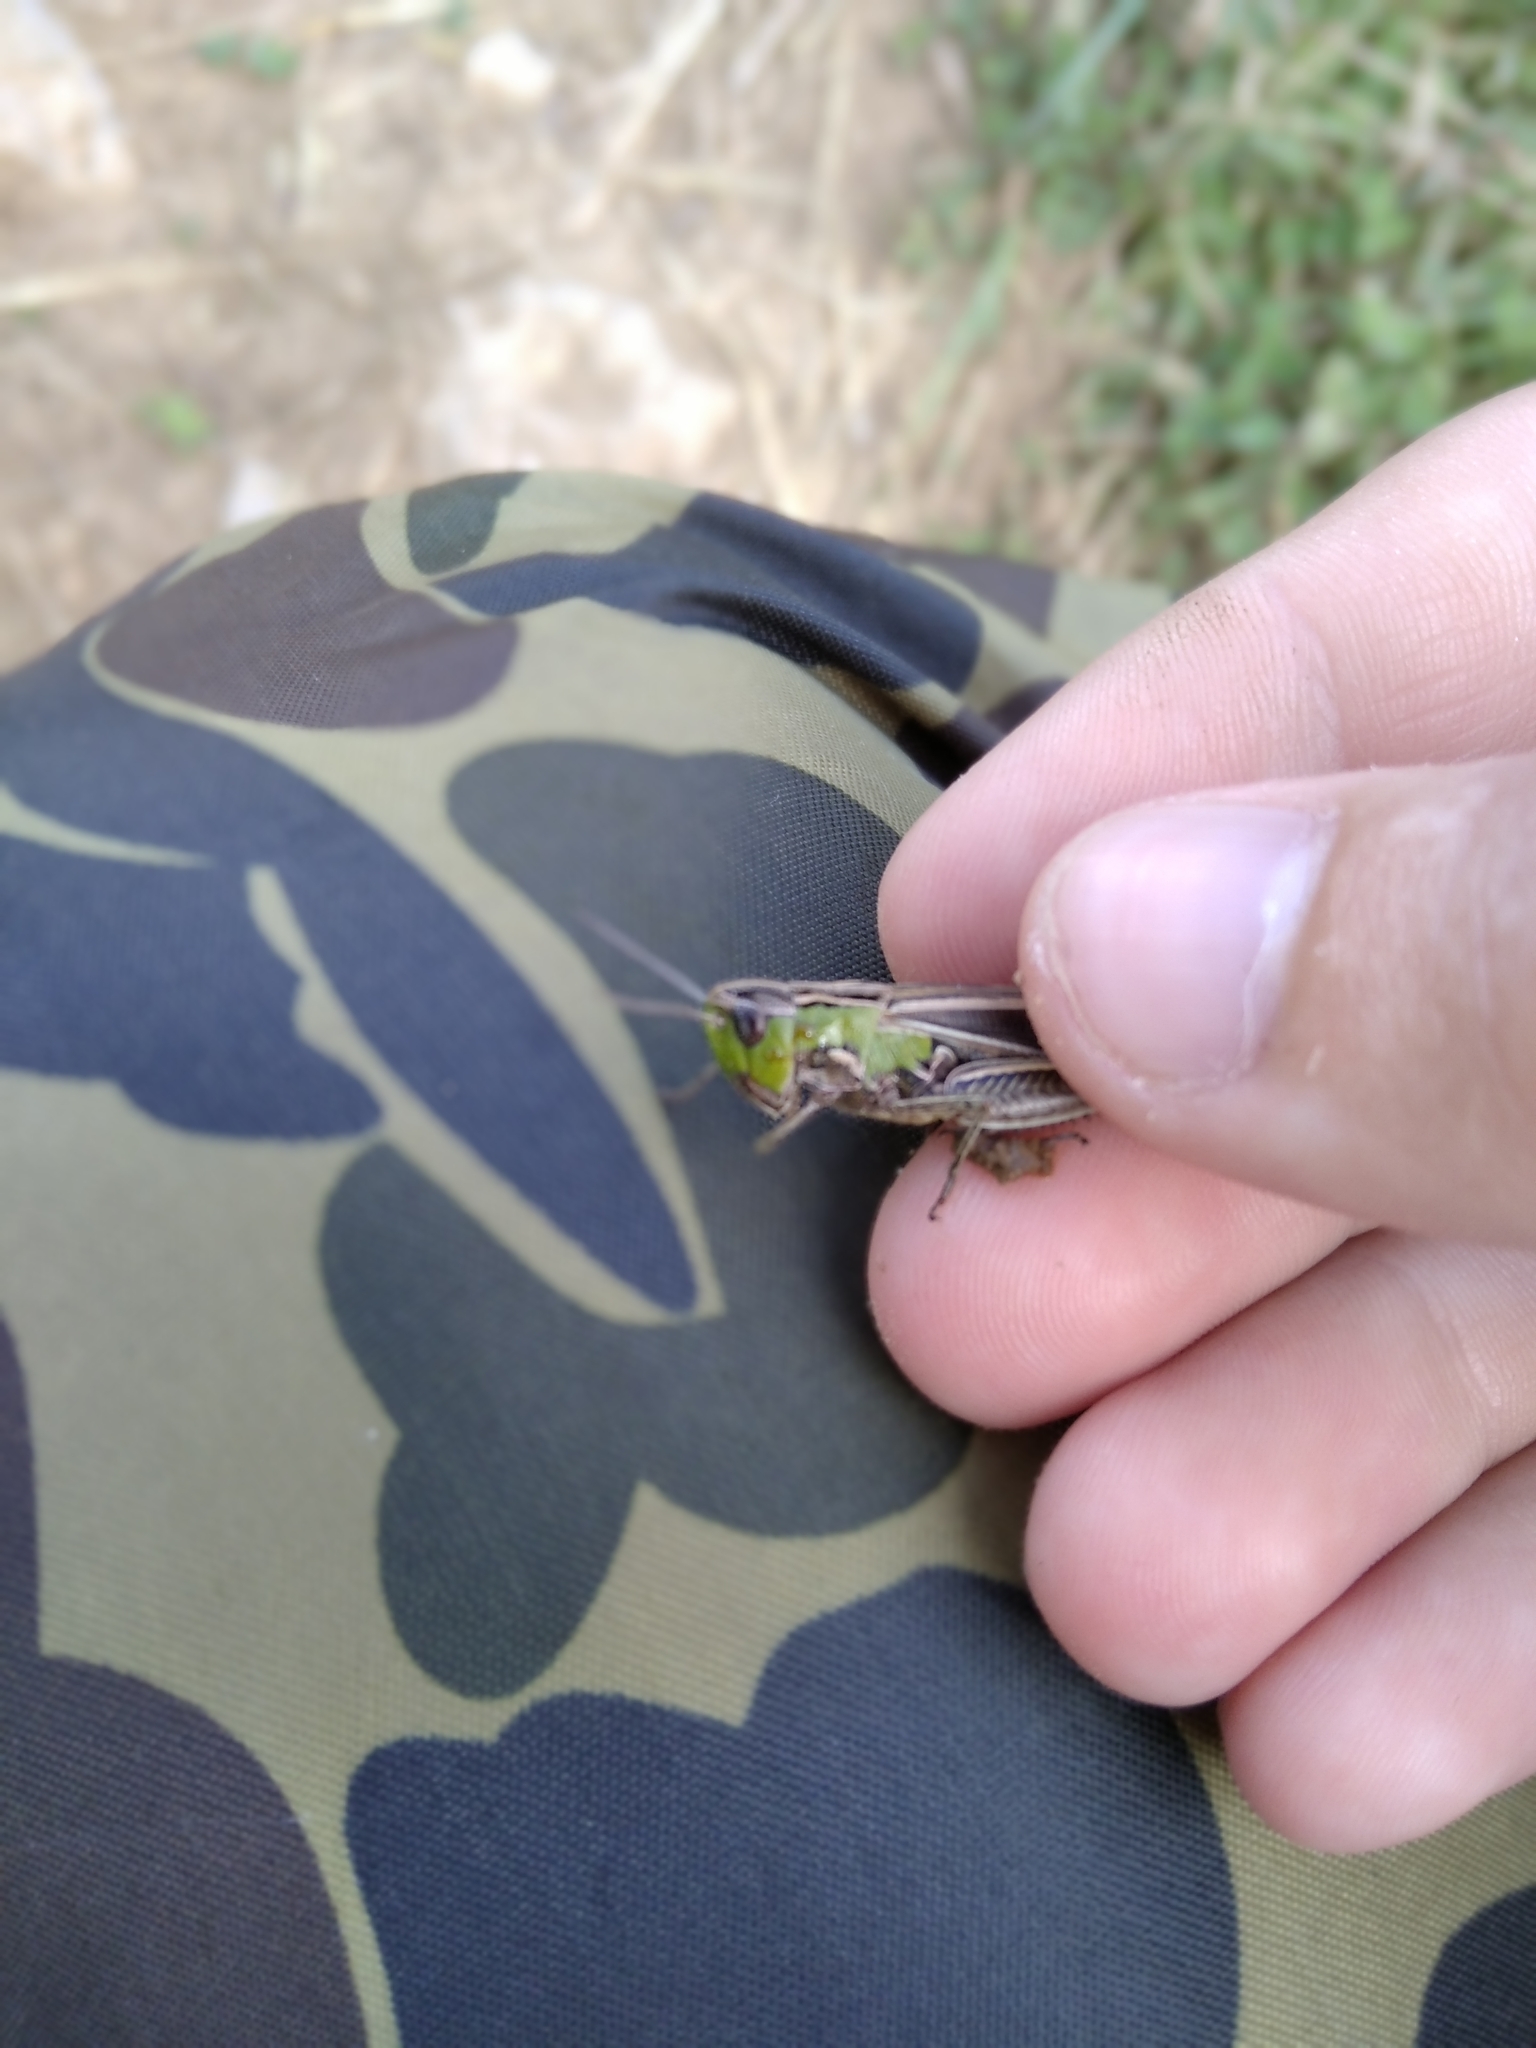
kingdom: Animalia
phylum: Arthropoda
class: Insecta
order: Orthoptera
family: Acrididae
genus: Stenobothrus
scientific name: Stenobothrus lineatus
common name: Stripe-winged grasshopper
